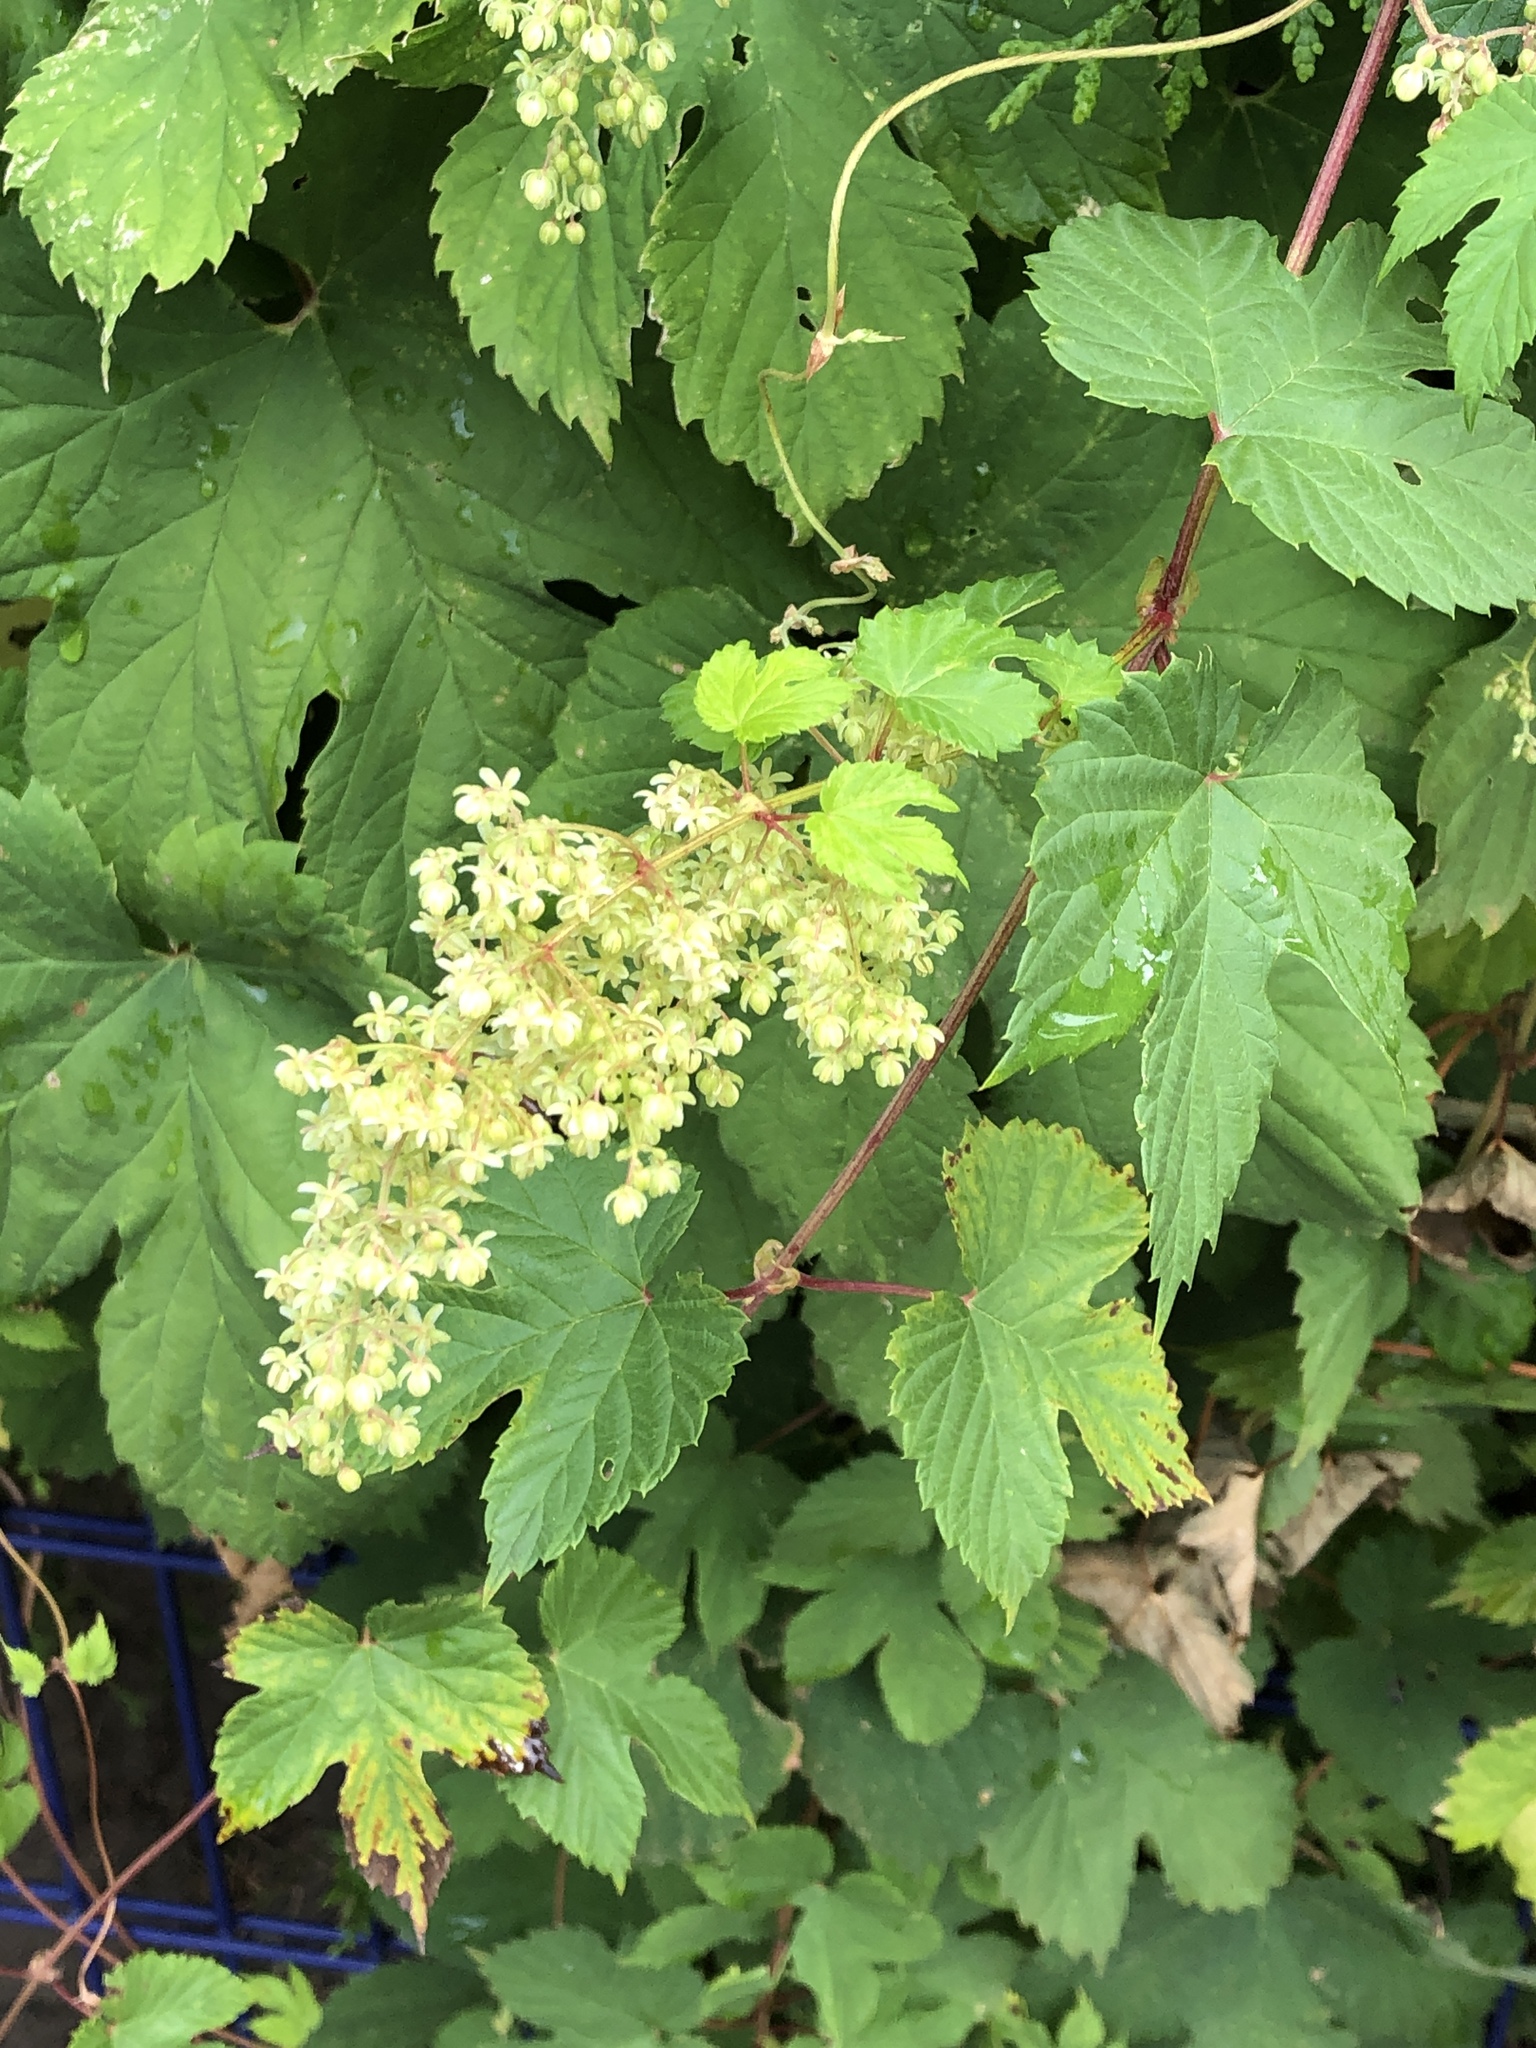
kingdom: Plantae
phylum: Tracheophyta
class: Magnoliopsida
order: Rosales
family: Cannabaceae
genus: Humulus
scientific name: Humulus lupulus
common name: Hop
